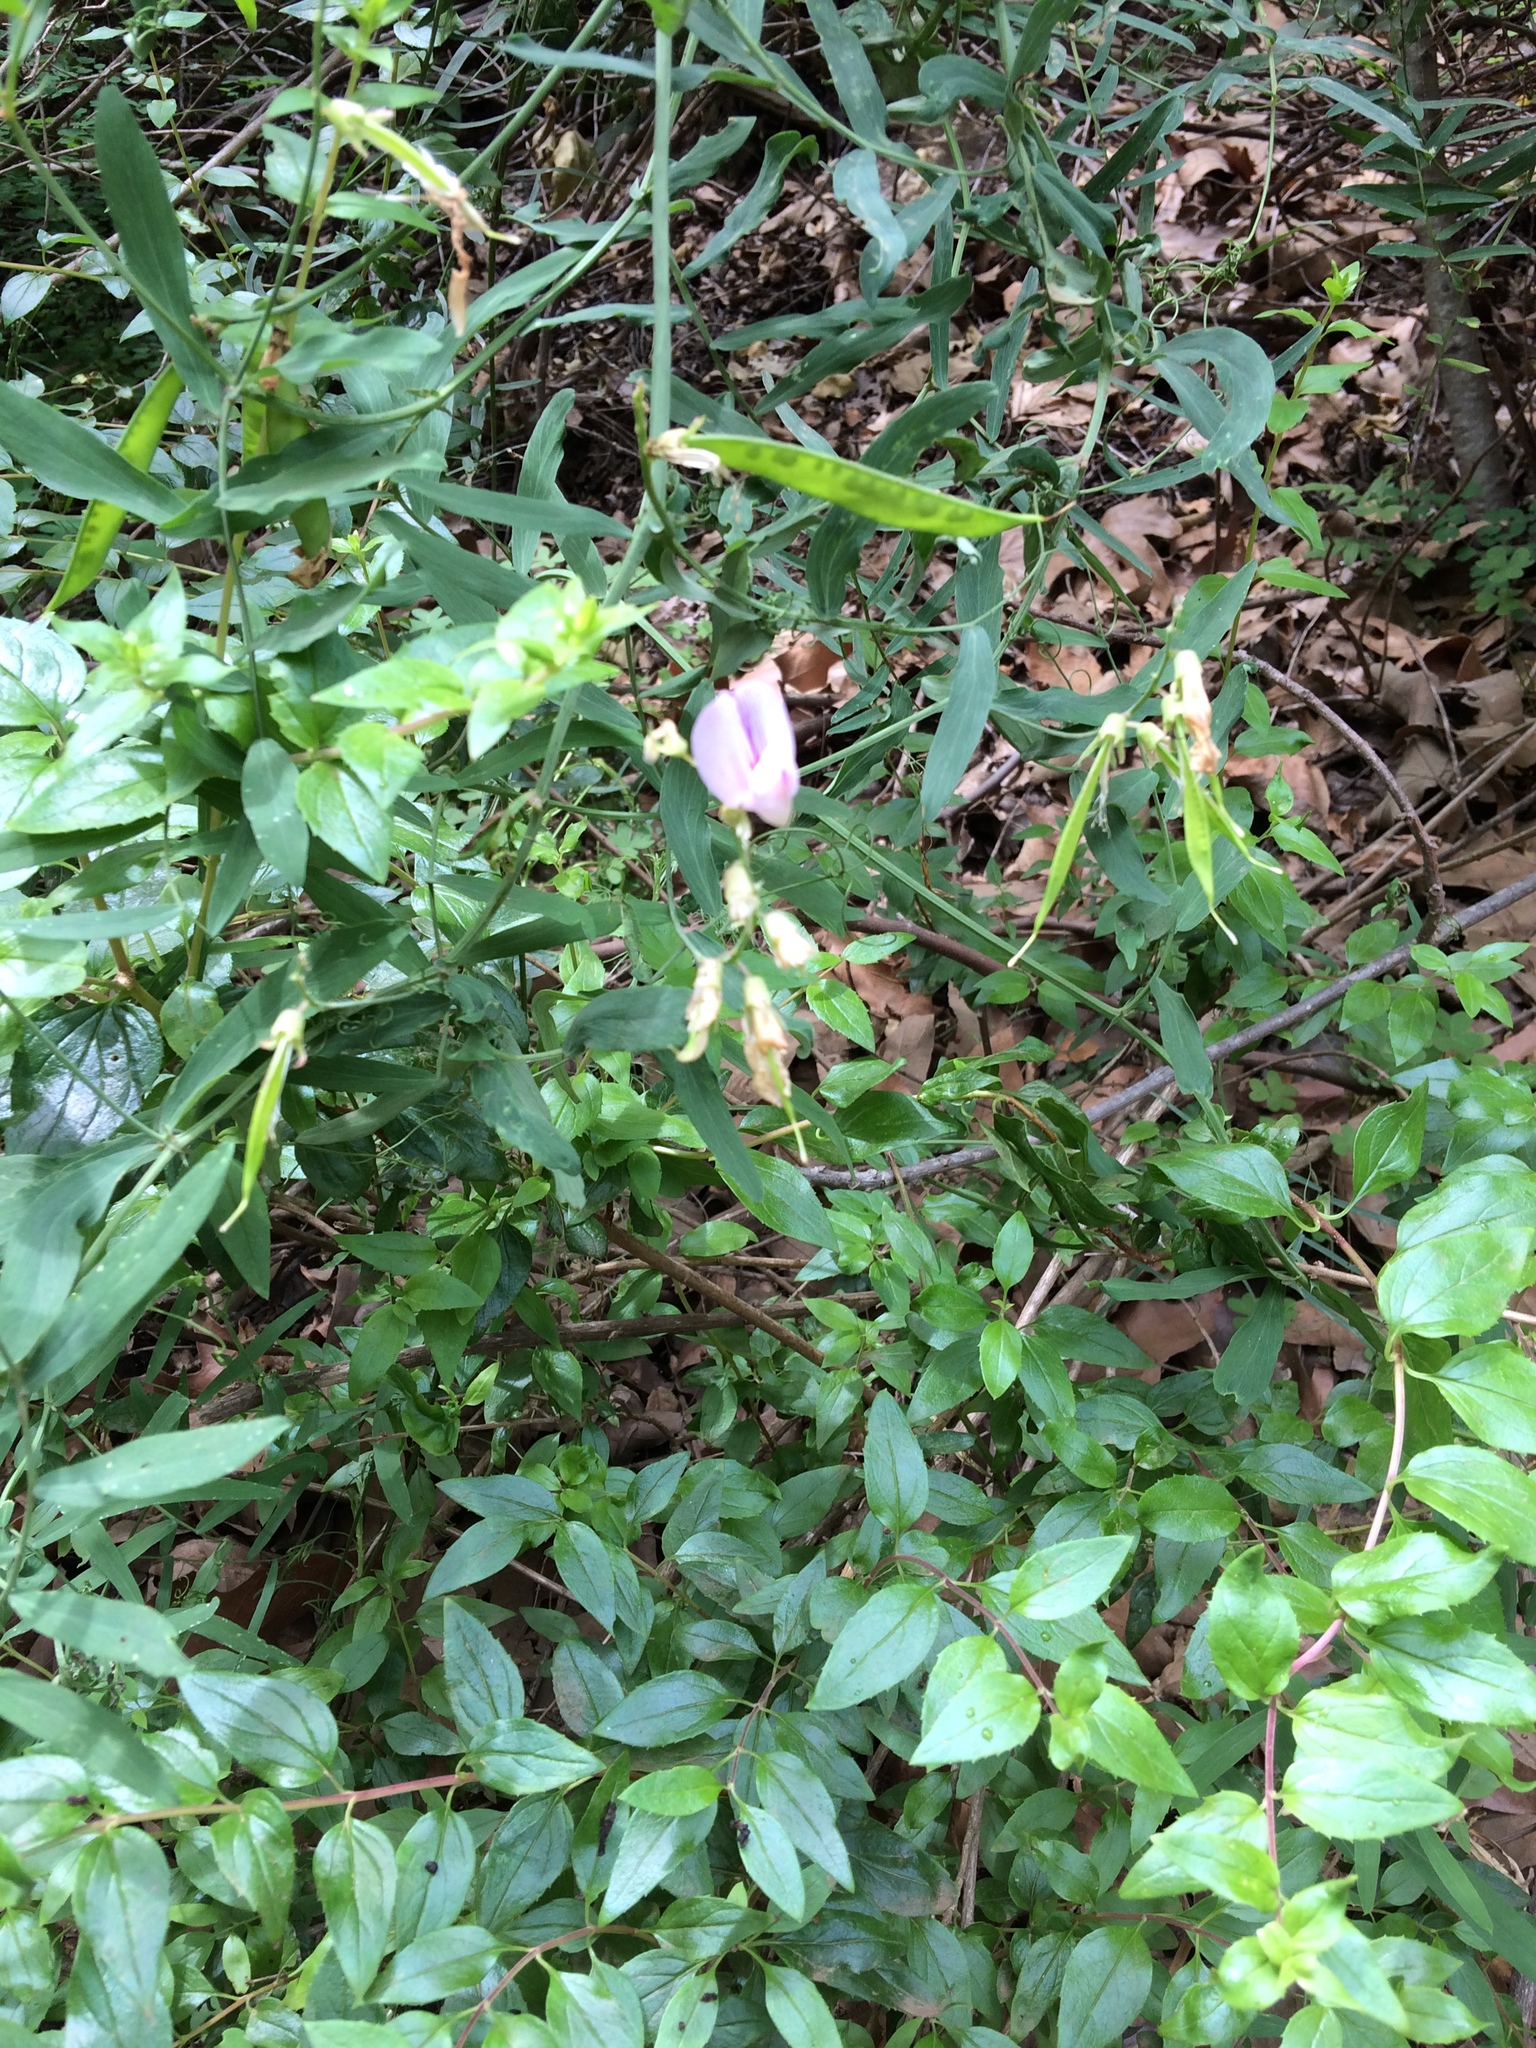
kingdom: Plantae
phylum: Tracheophyta
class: Magnoliopsida
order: Fabales
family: Fabaceae
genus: Lathyrus
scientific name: Lathyrus vestitus
